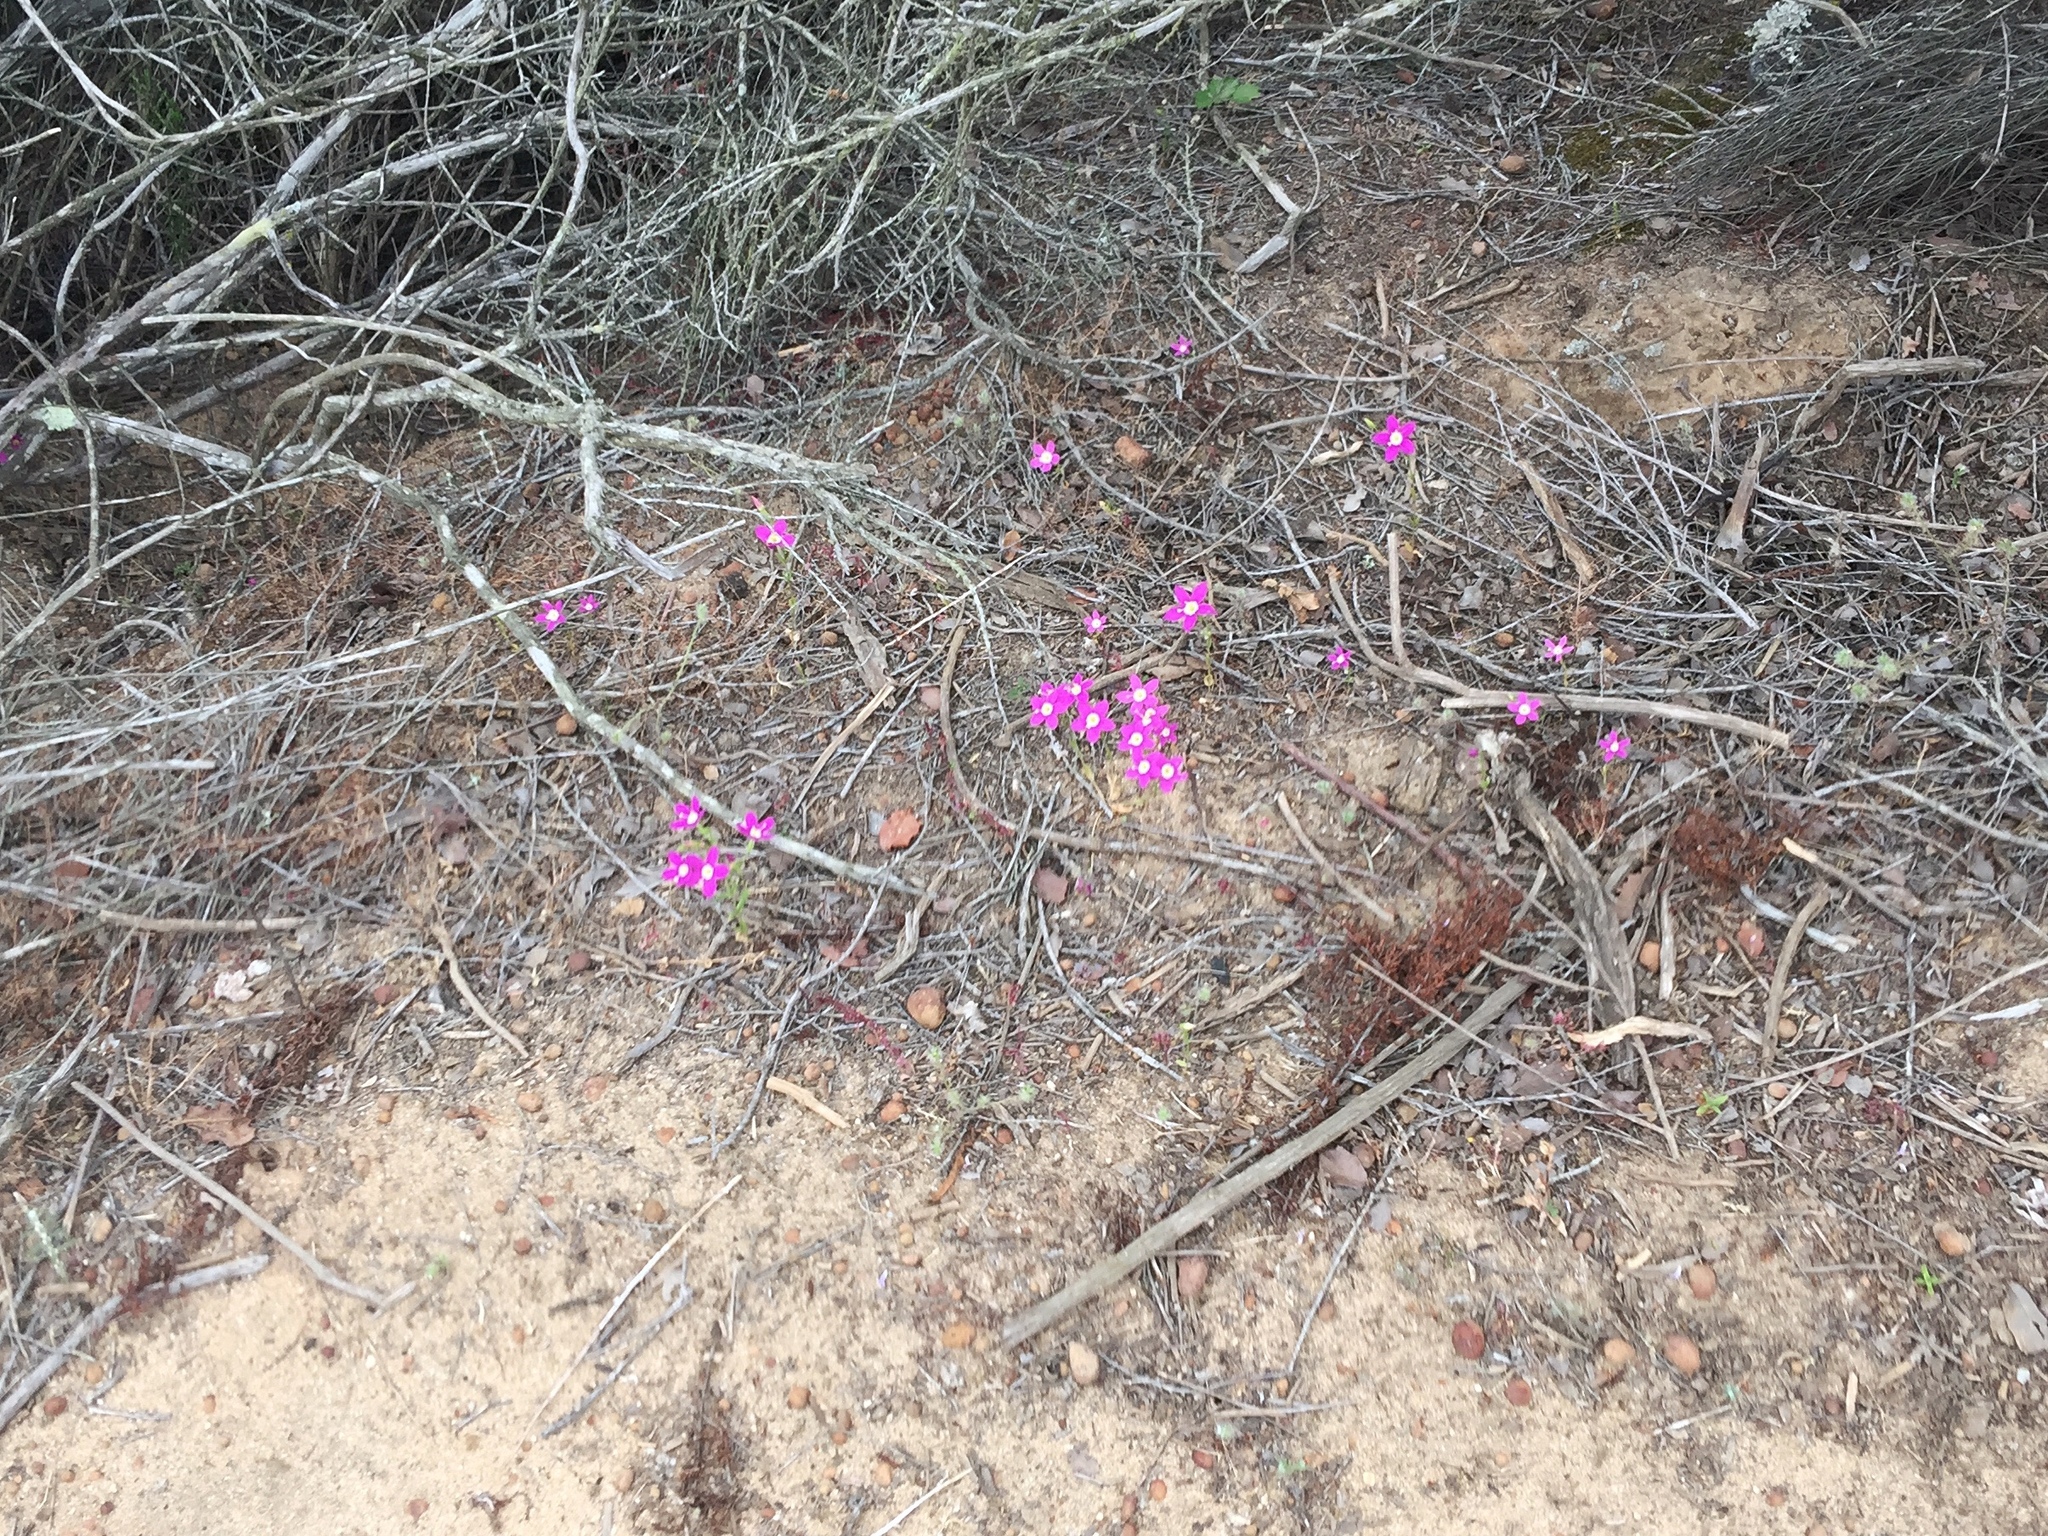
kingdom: Plantae
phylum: Tracheophyta
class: Magnoliopsida
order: Gentianales
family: Gentianaceae
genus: Zeltnera
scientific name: Zeltnera venusta
